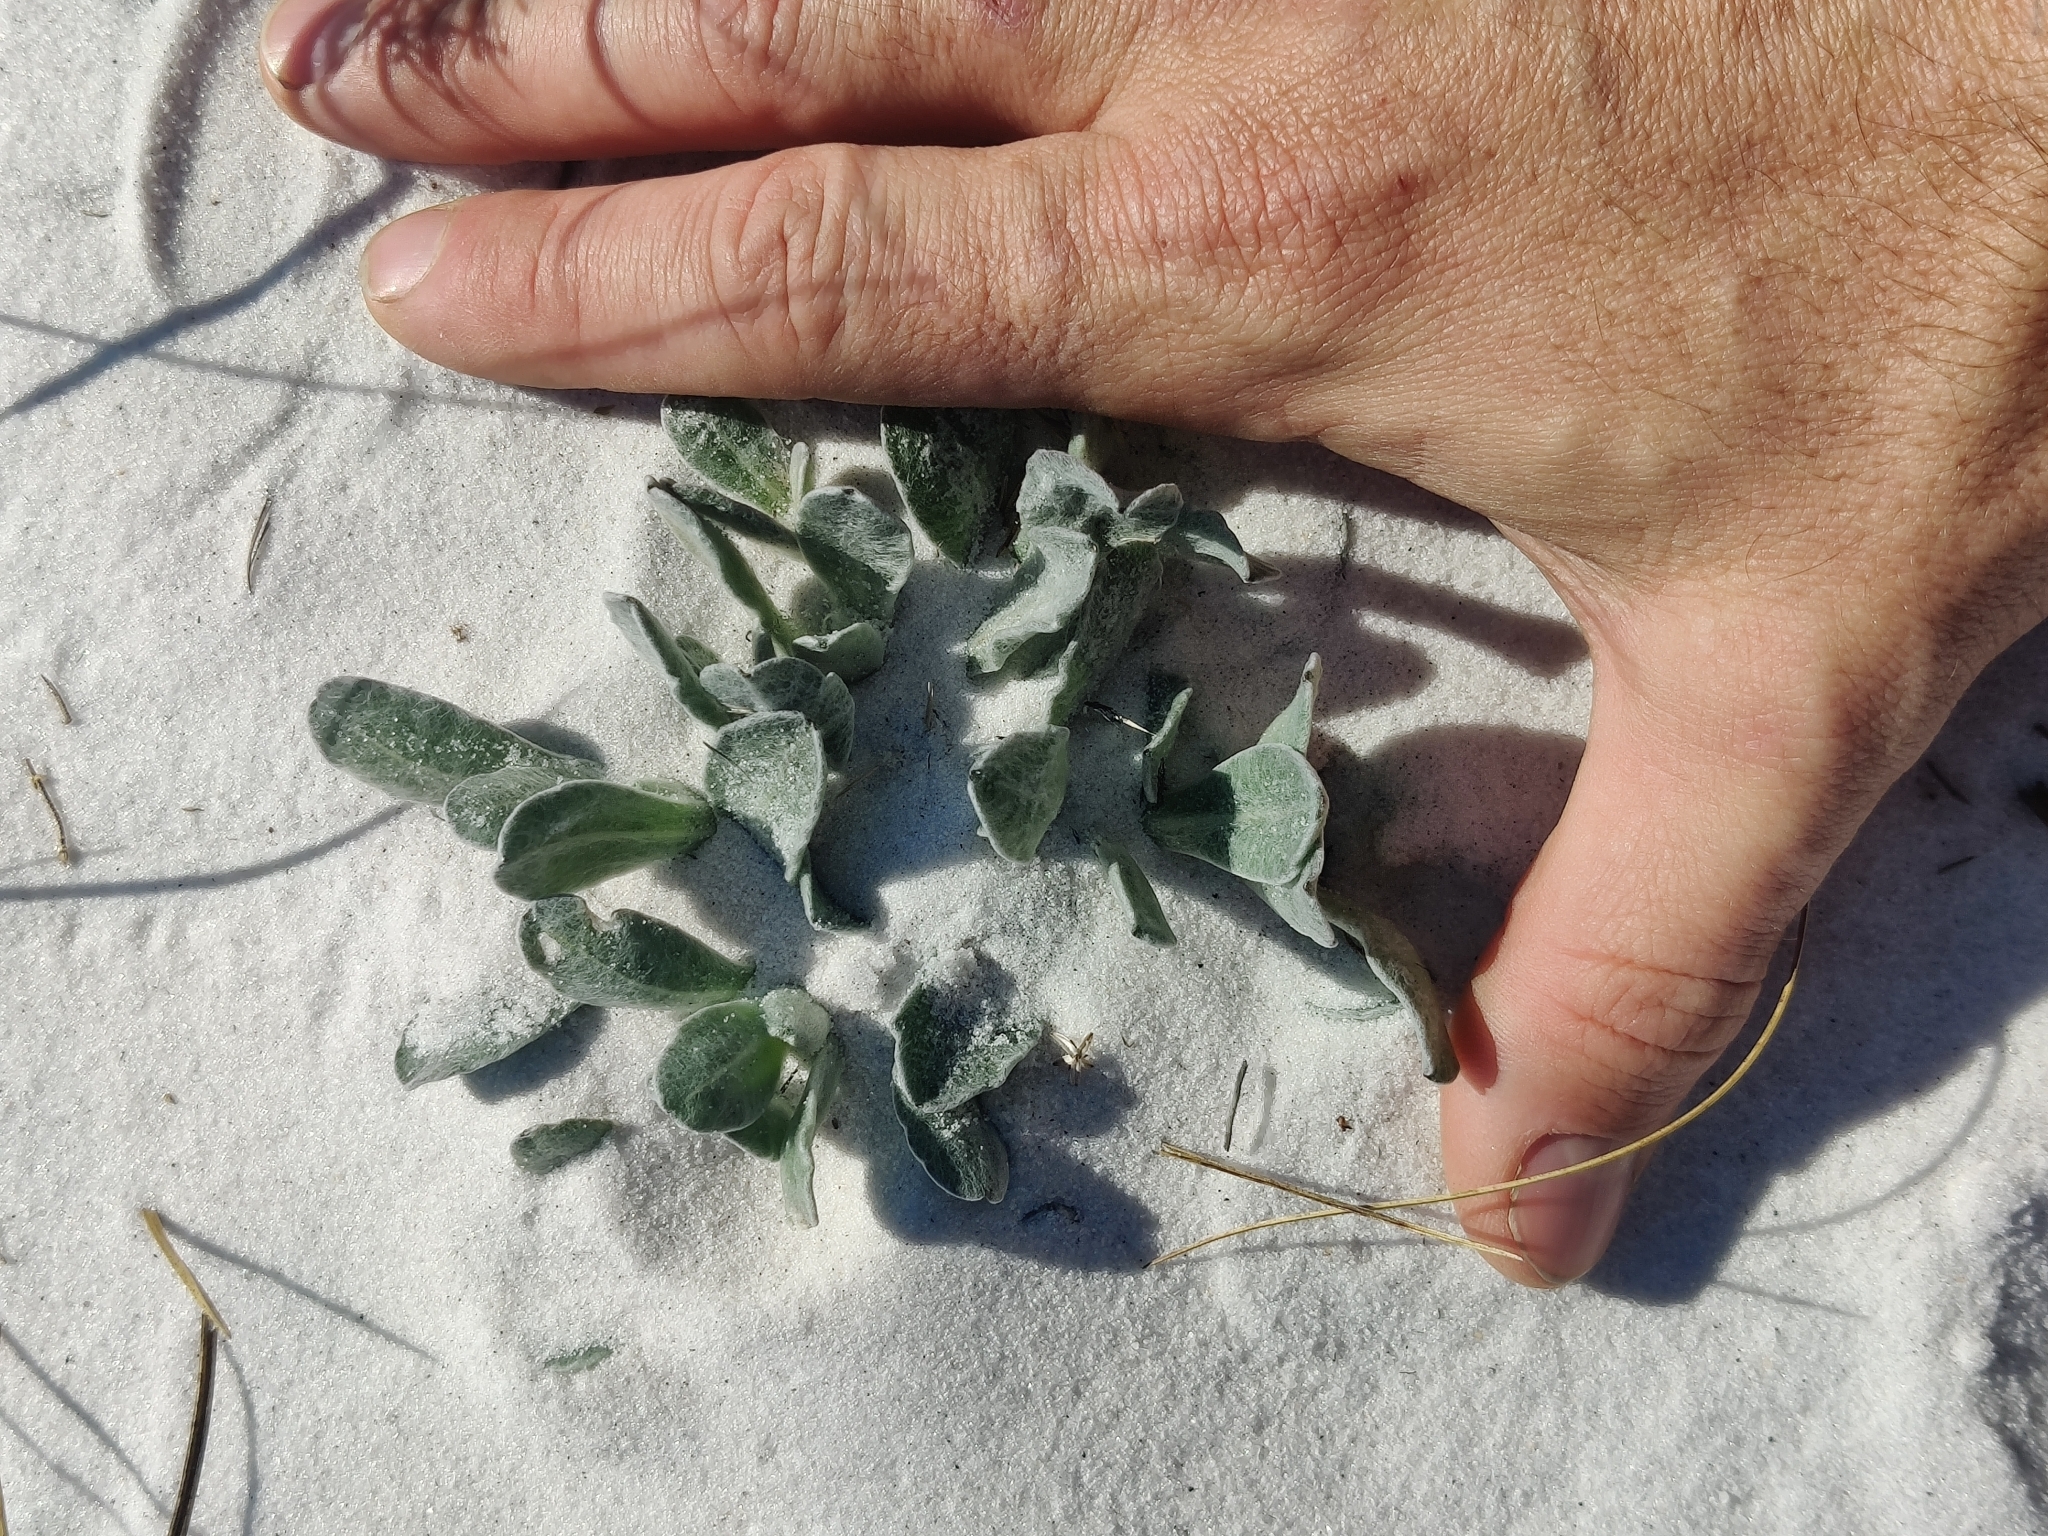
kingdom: Plantae
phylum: Tracheophyta
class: Magnoliopsida
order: Asterales
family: Asteraceae
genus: Chrysopsis
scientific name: Chrysopsis godfreyi
